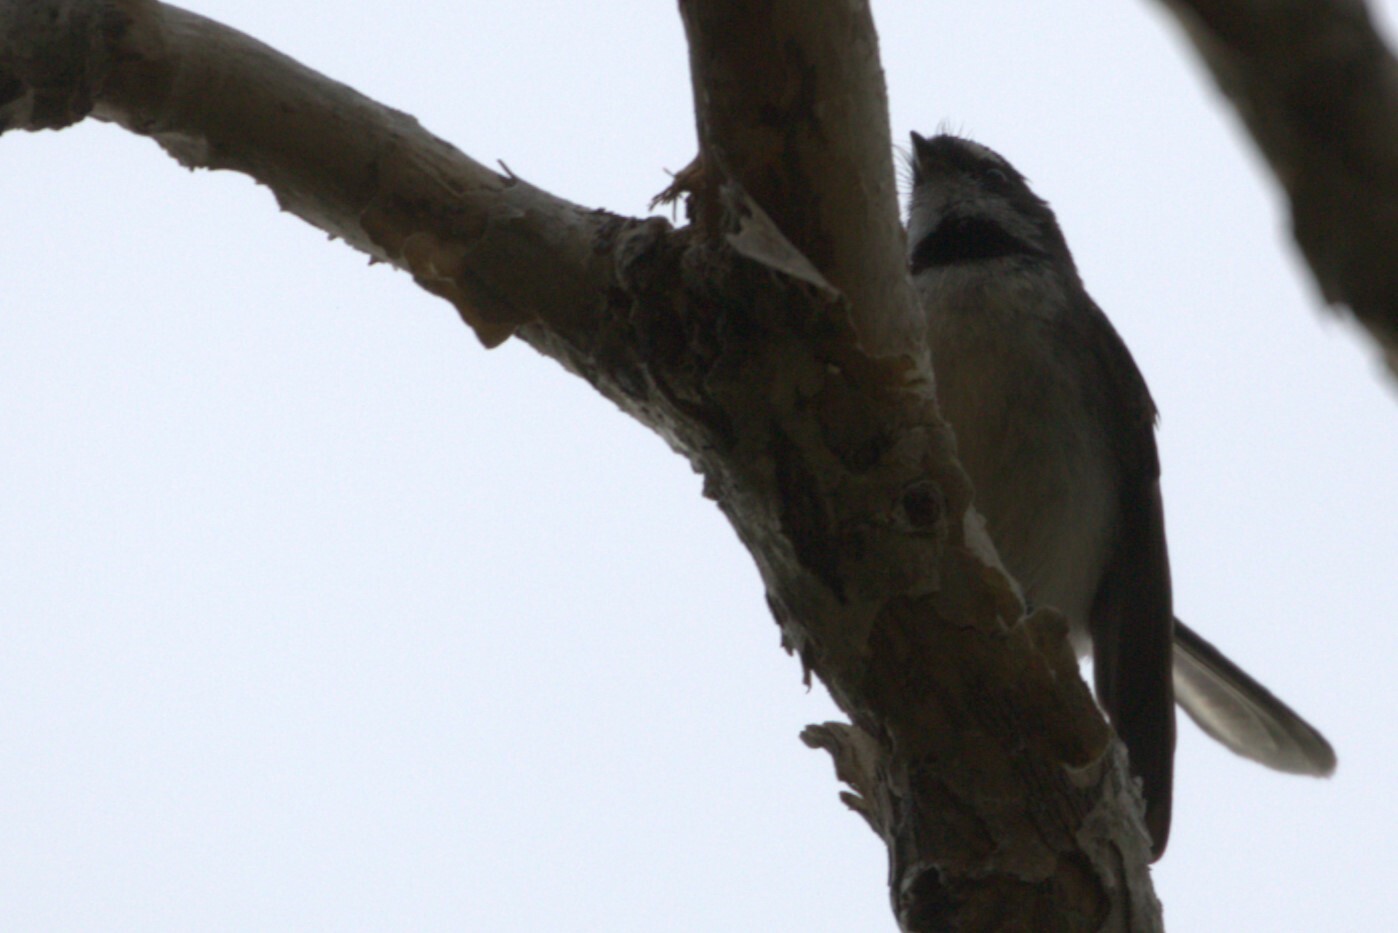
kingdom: Animalia
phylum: Chordata
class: Aves
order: Passeriformes
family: Rhipiduridae
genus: Rhipidura
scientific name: Rhipidura albiscapa
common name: Grey fantail
